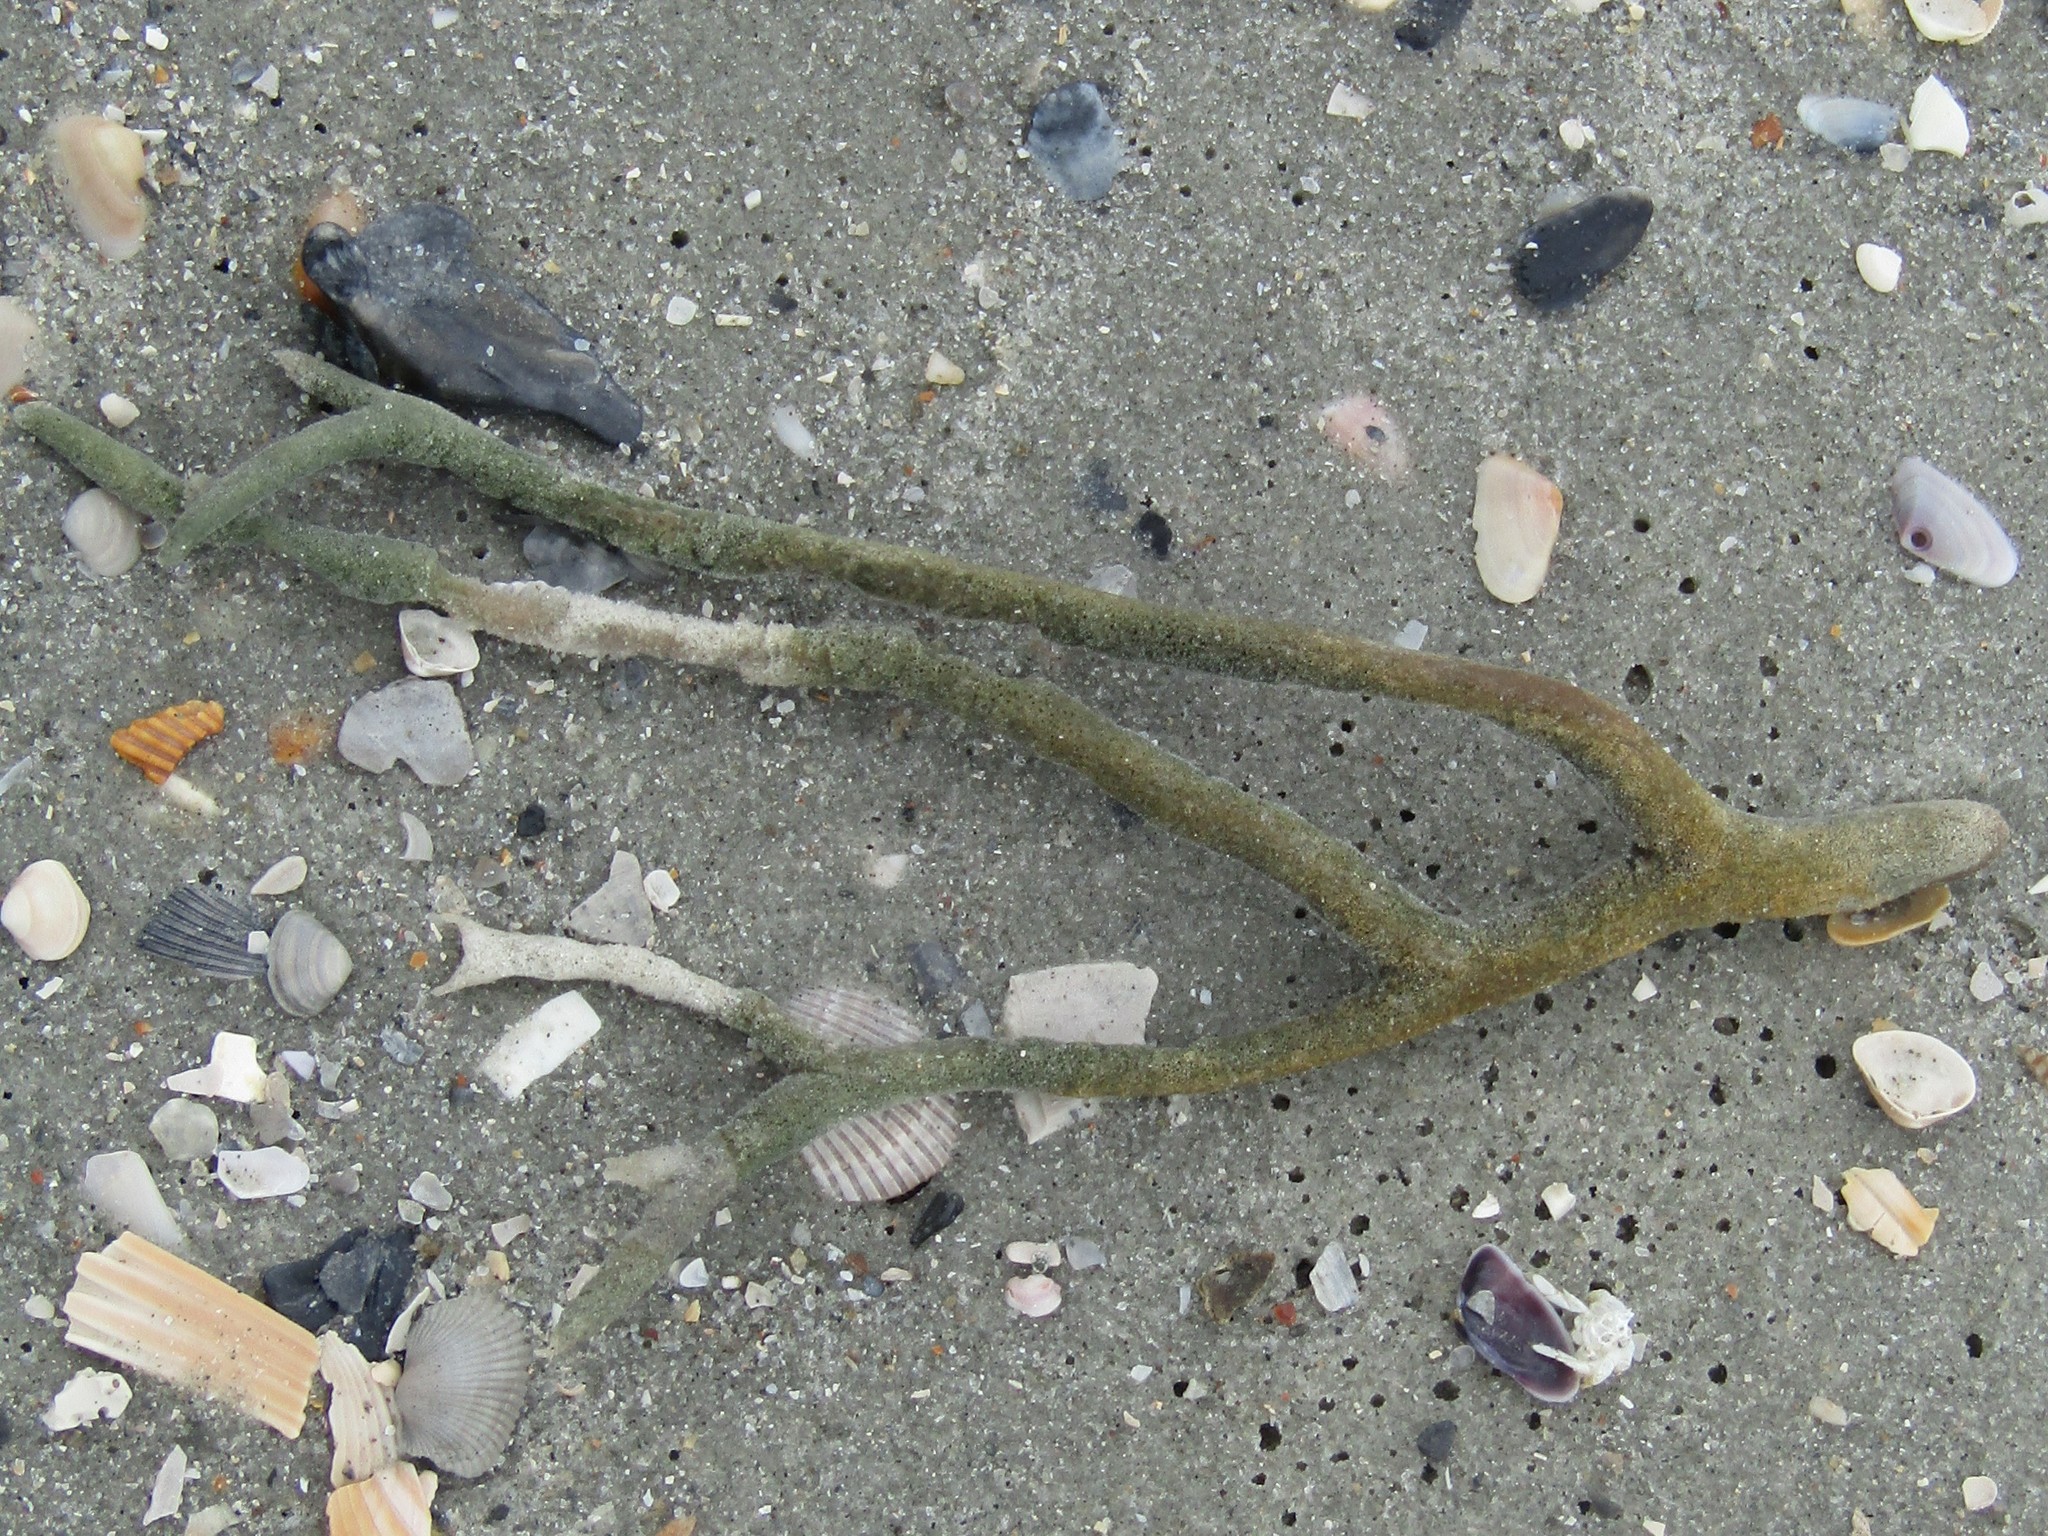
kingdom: Animalia
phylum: Porifera
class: Demospongiae
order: Haplosclerida
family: Chalinidae
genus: Haliclona
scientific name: Haliclona oculata
